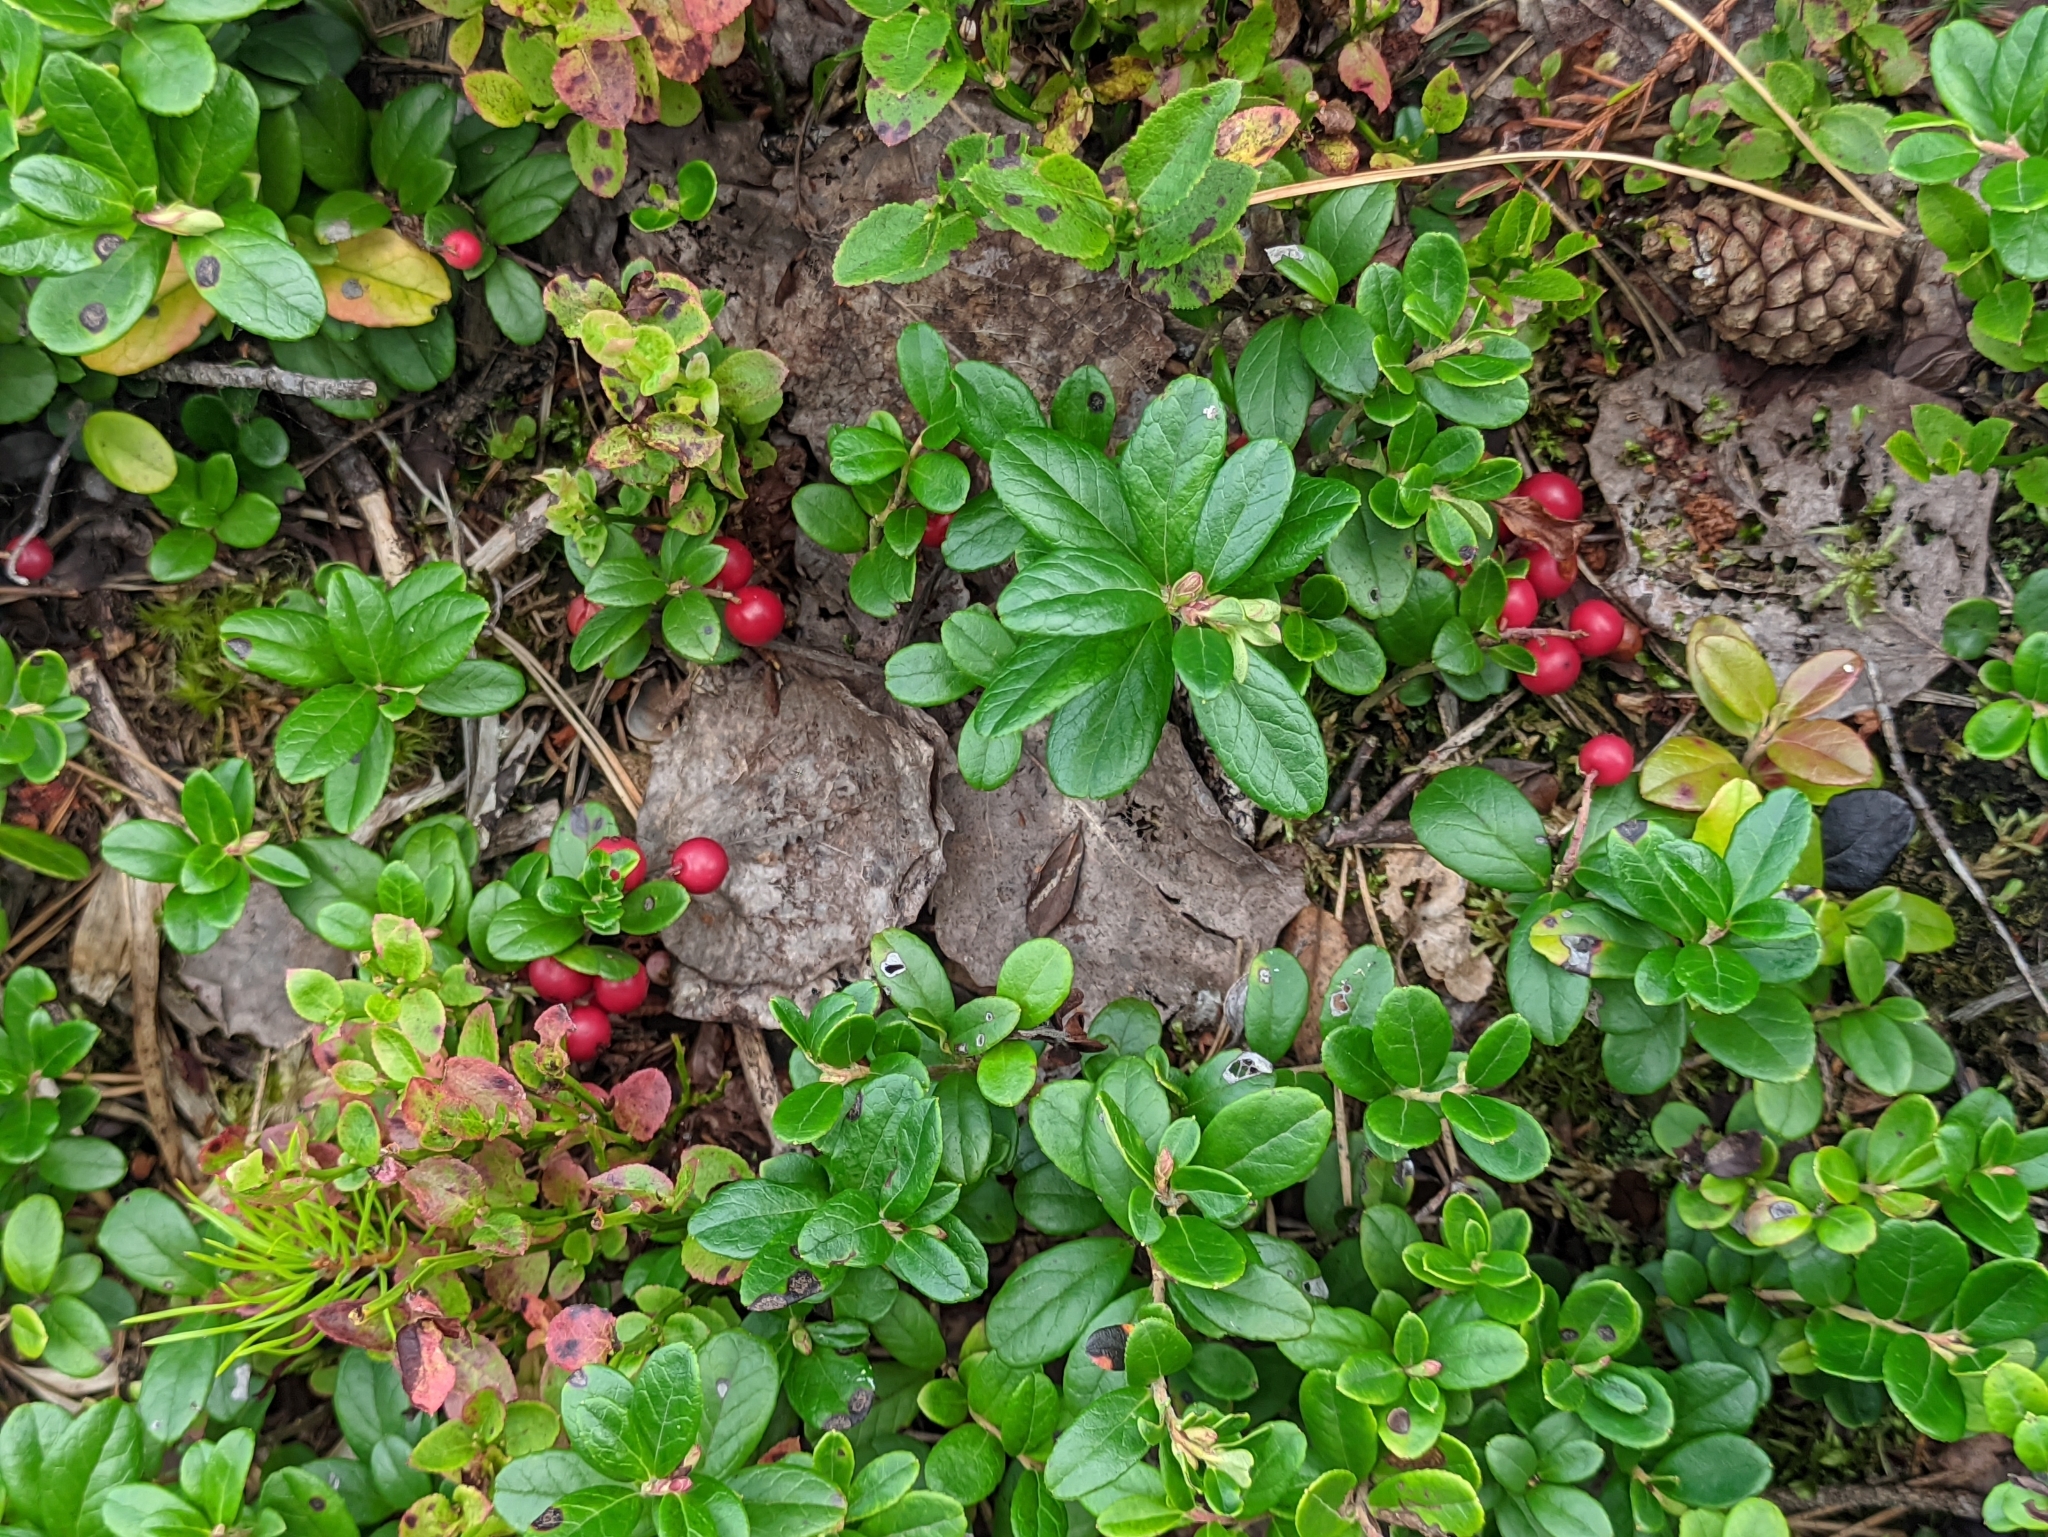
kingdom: Plantae
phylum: Tracheophyta
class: Magnoliopsida
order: Ericales
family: Ericaceae
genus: Vaccinium
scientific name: Vaccinium vitis-idaea
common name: Cowberry
